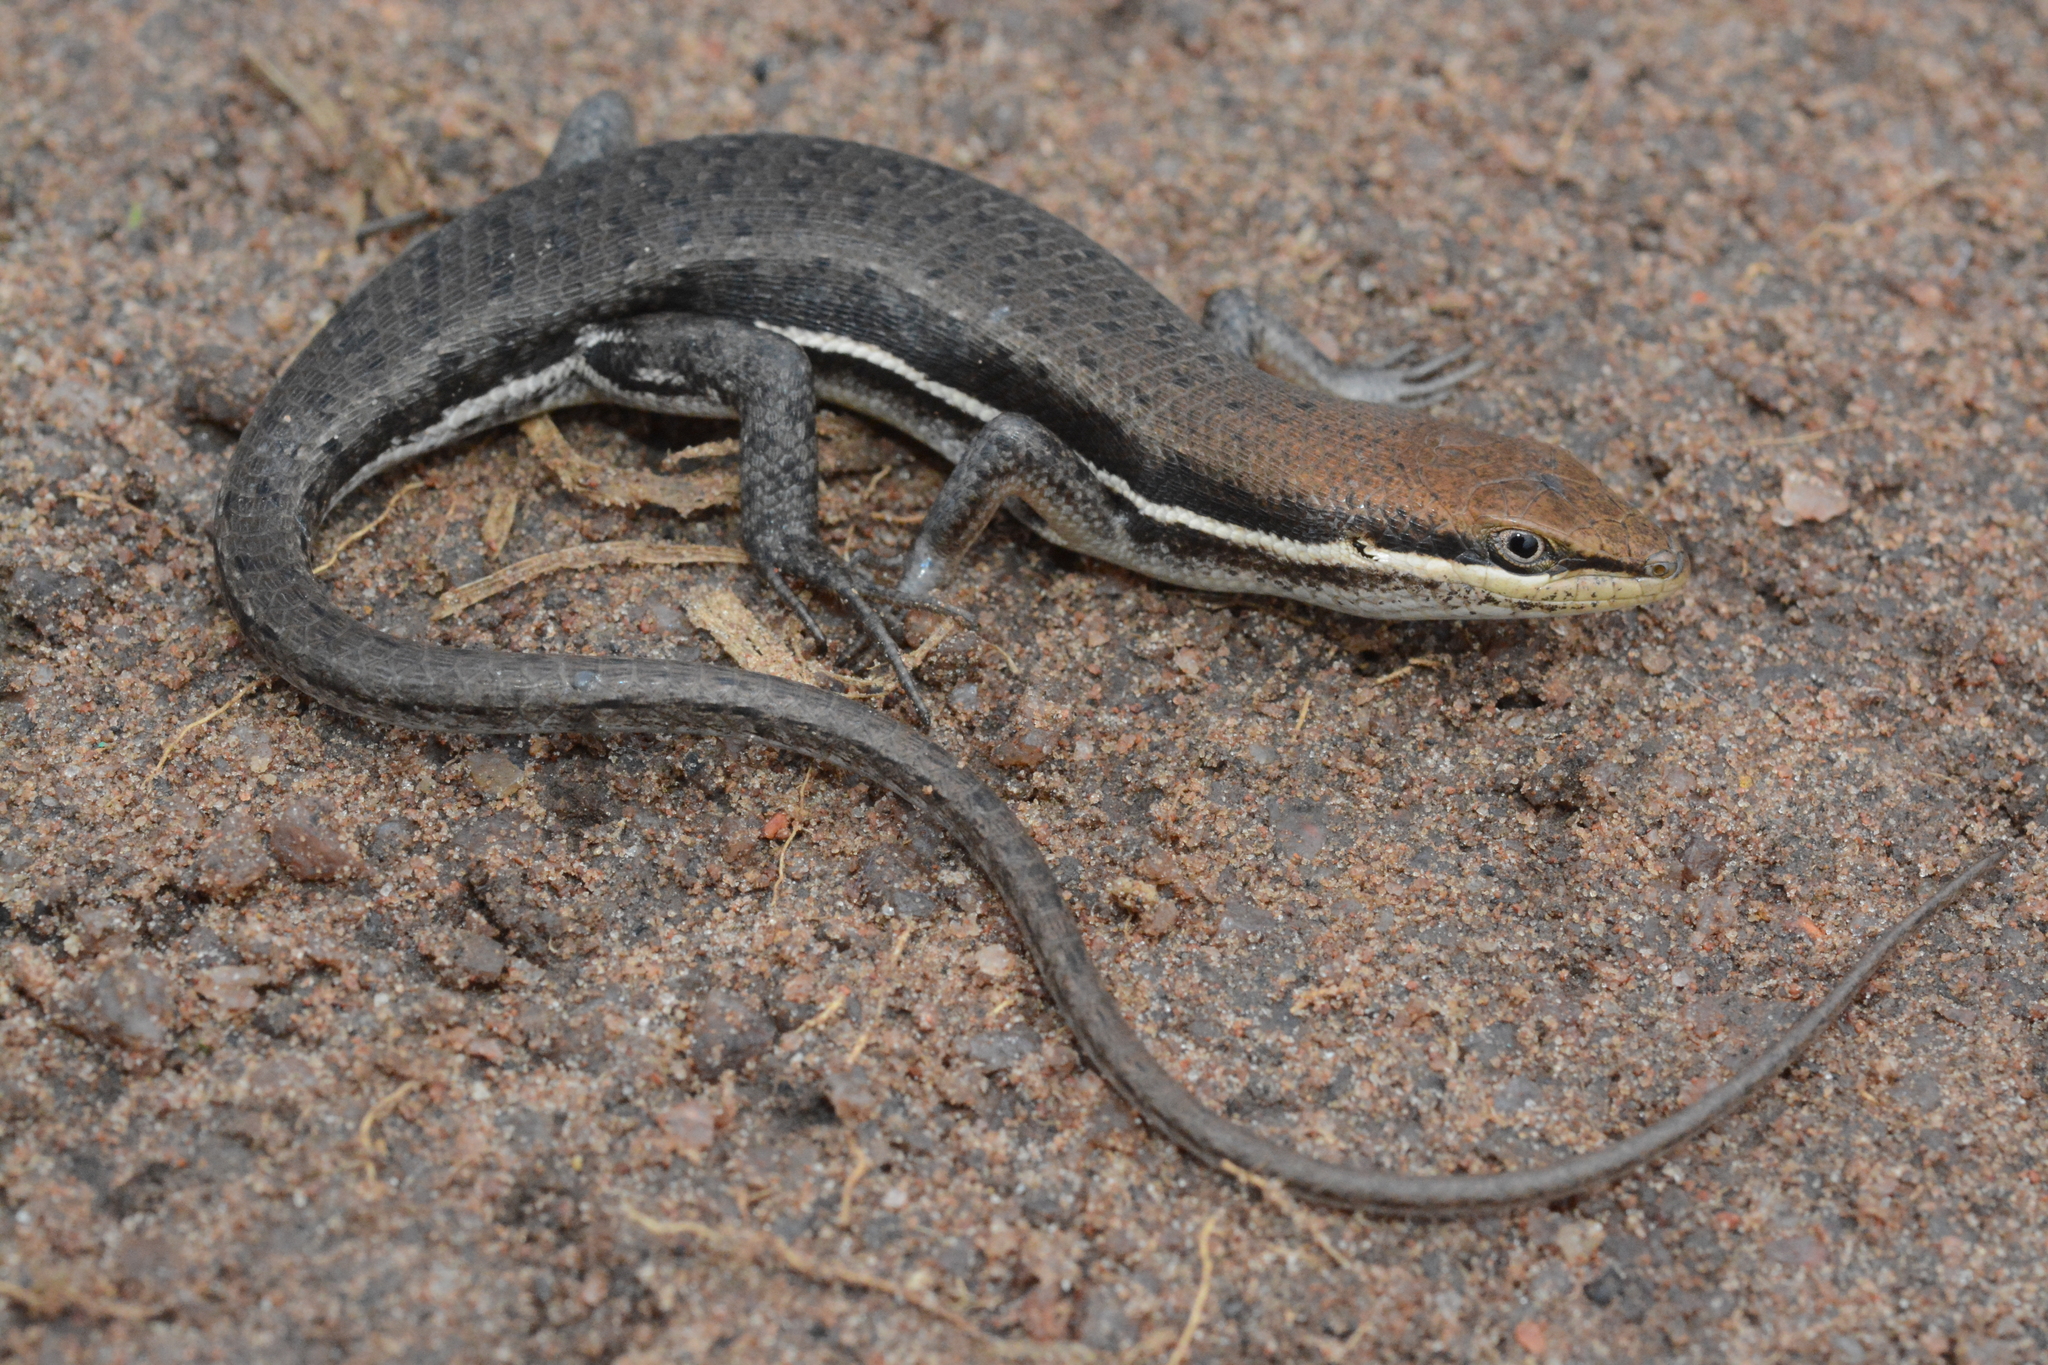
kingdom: Animalia
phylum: Chordata
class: Squamata
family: Scincidae
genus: Trachylepis
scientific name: Trachylepis varia
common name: Eastern variable skink
